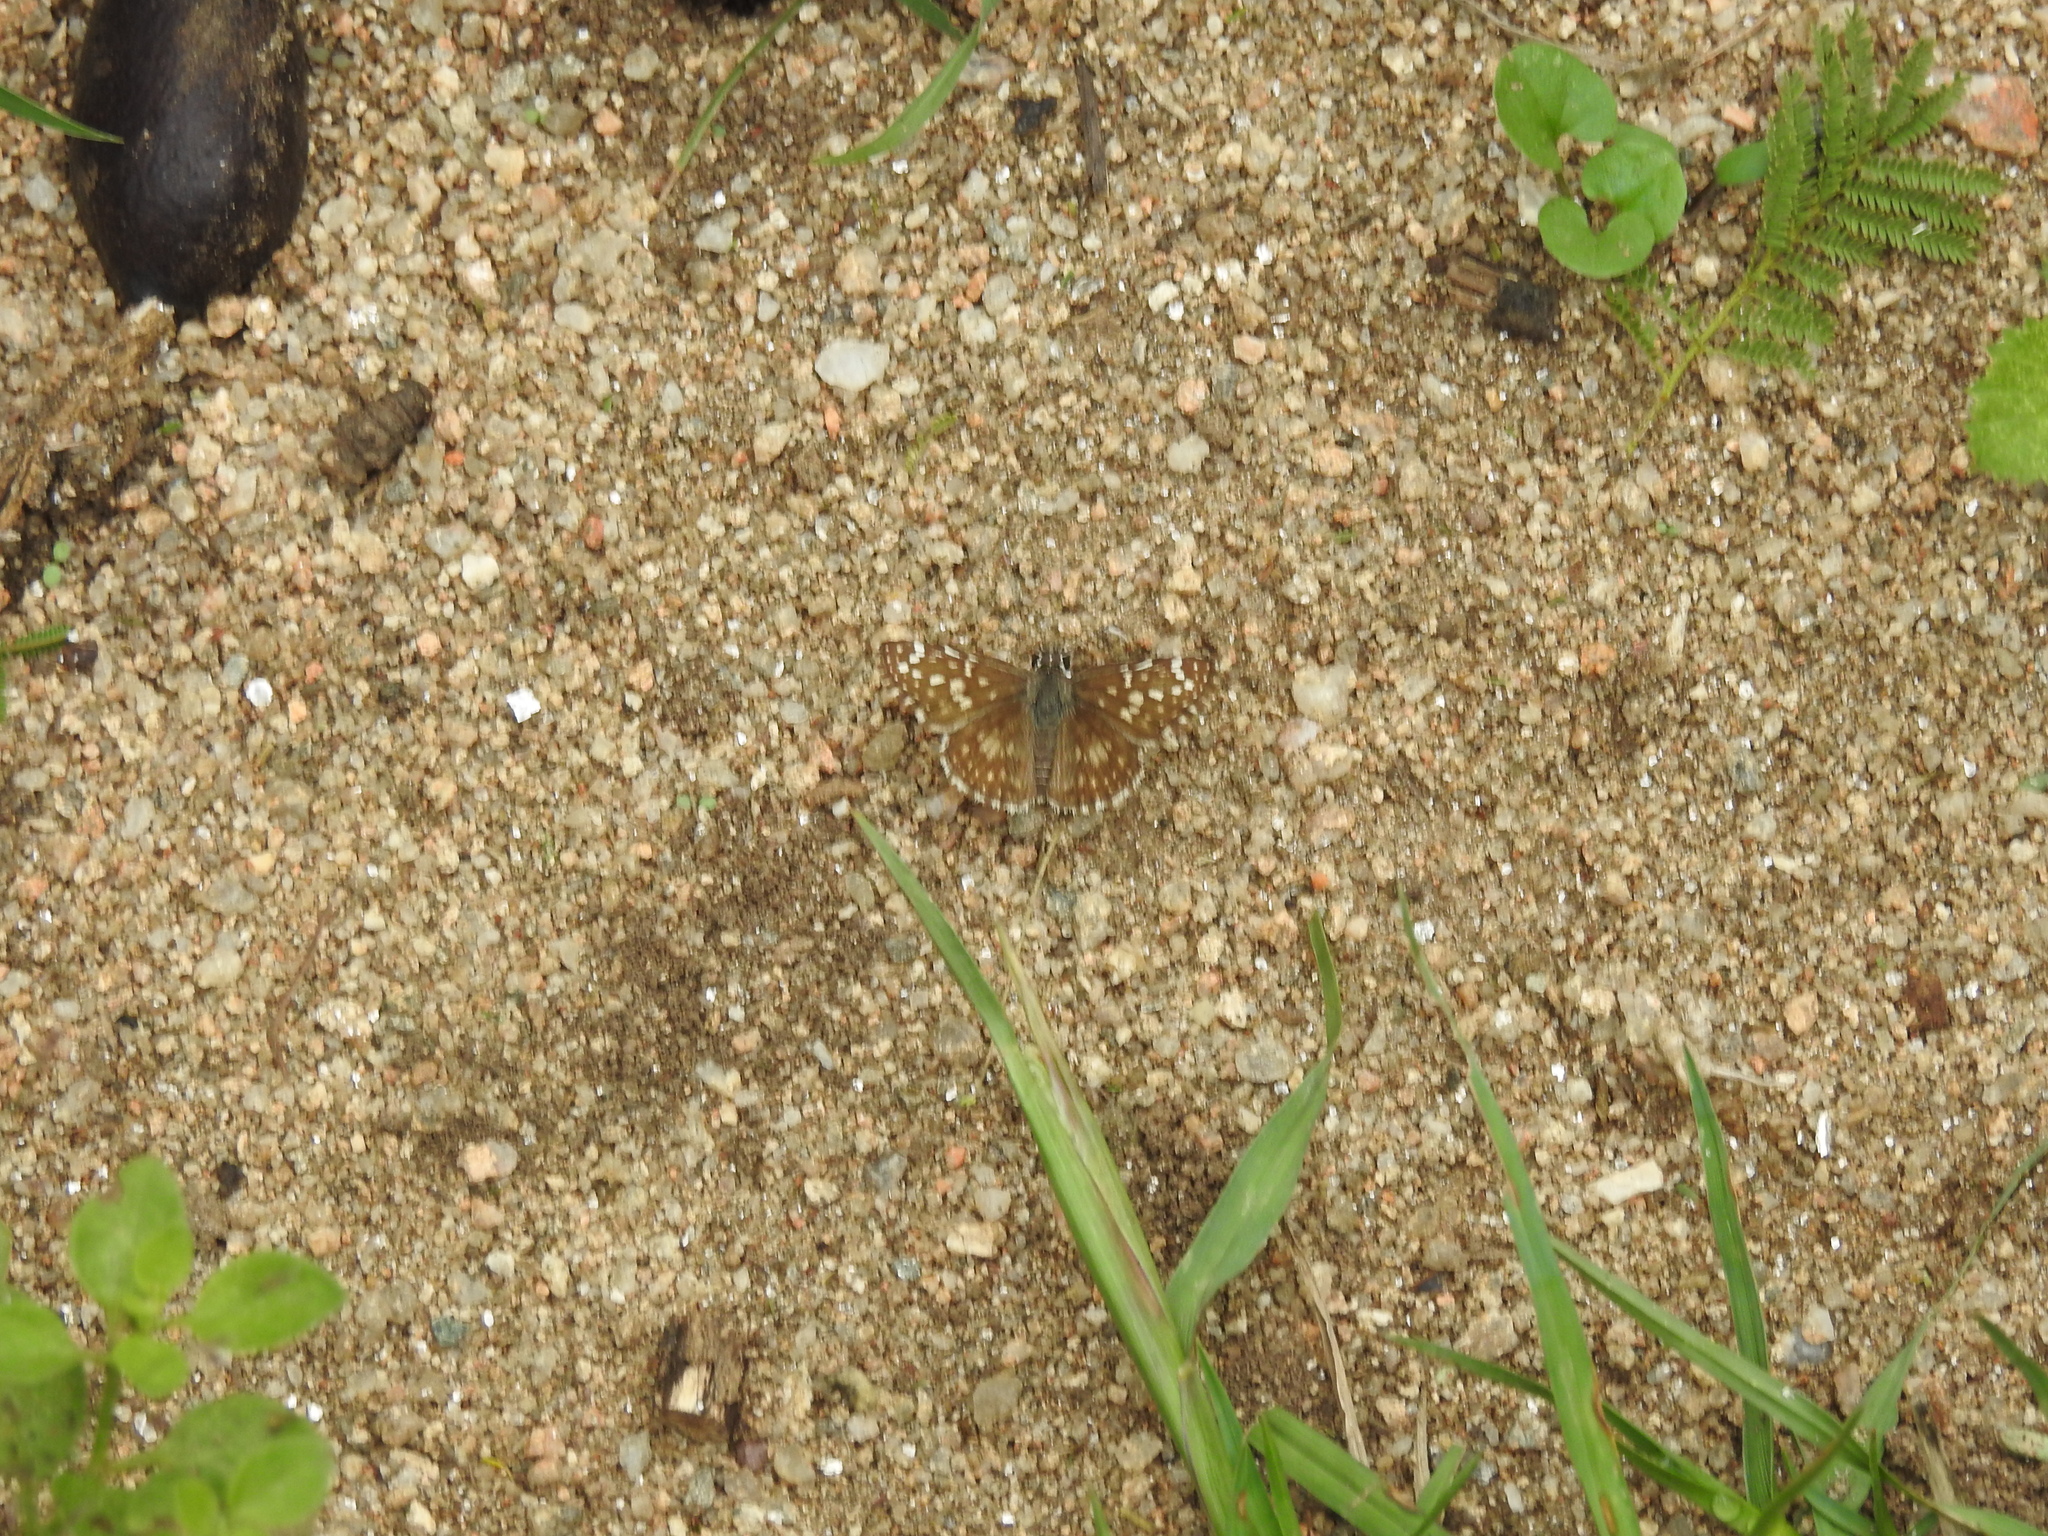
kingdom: Animalia
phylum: Arthropoda
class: Insecta
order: Lepidoptera
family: Hesperiidae
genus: Heliopetes
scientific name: Heliopetes americanus
